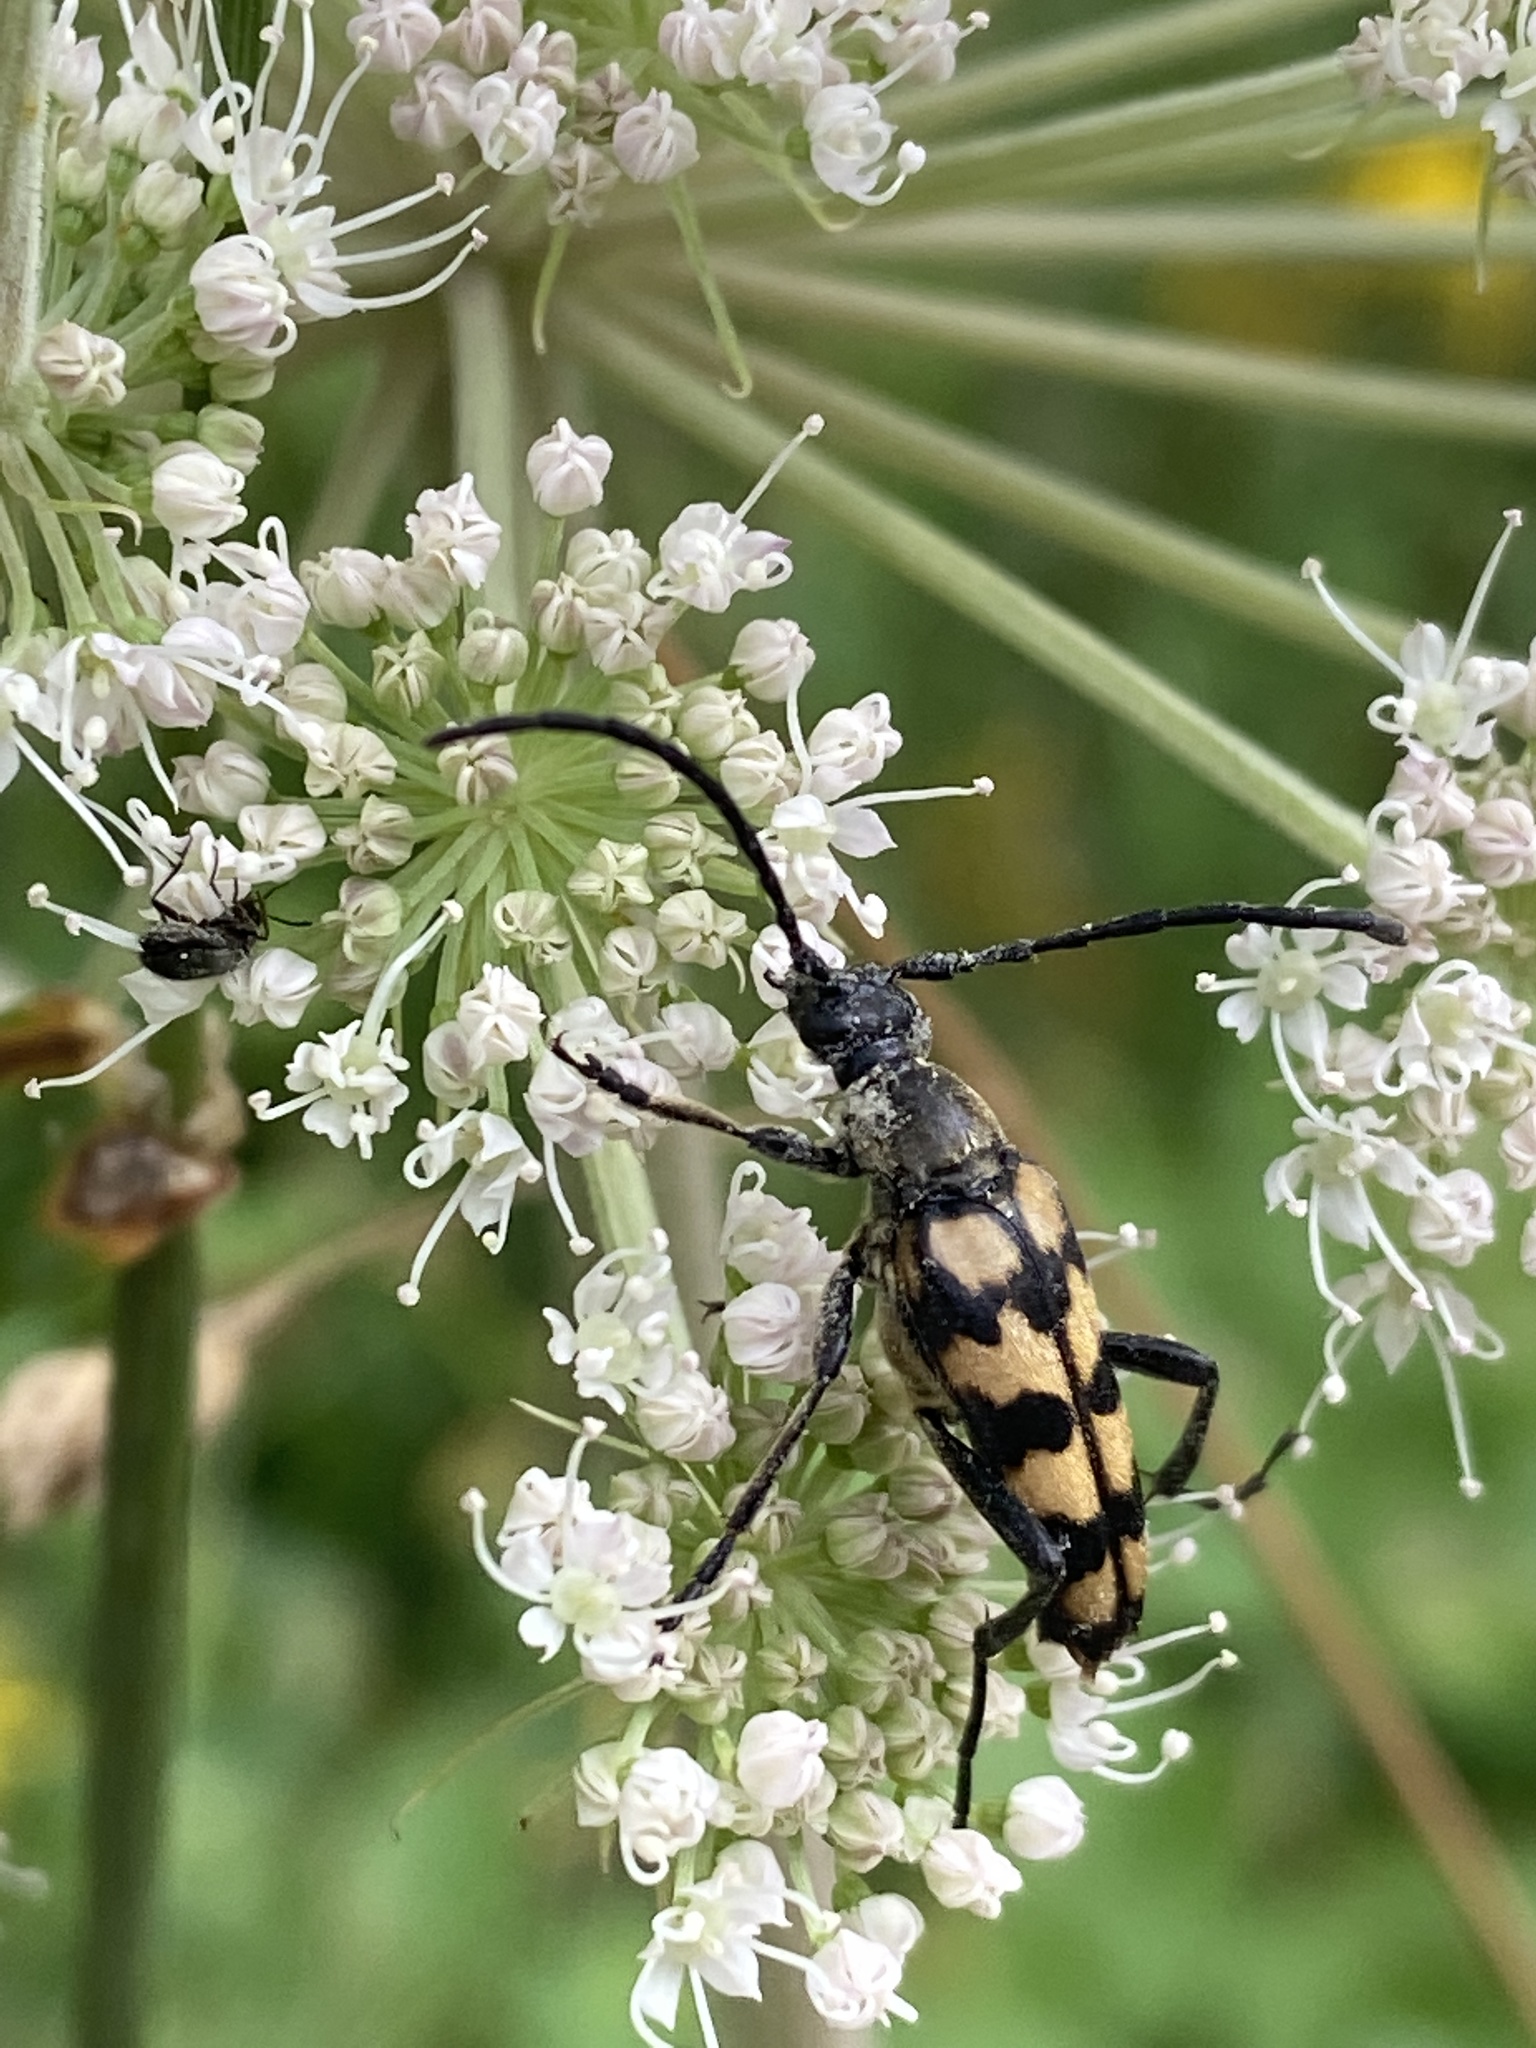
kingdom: Animalia
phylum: Arthropoda
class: Insecta
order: Coleoptera
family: Cerambycidae
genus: Leptura
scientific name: Leptura quadrifasciata
